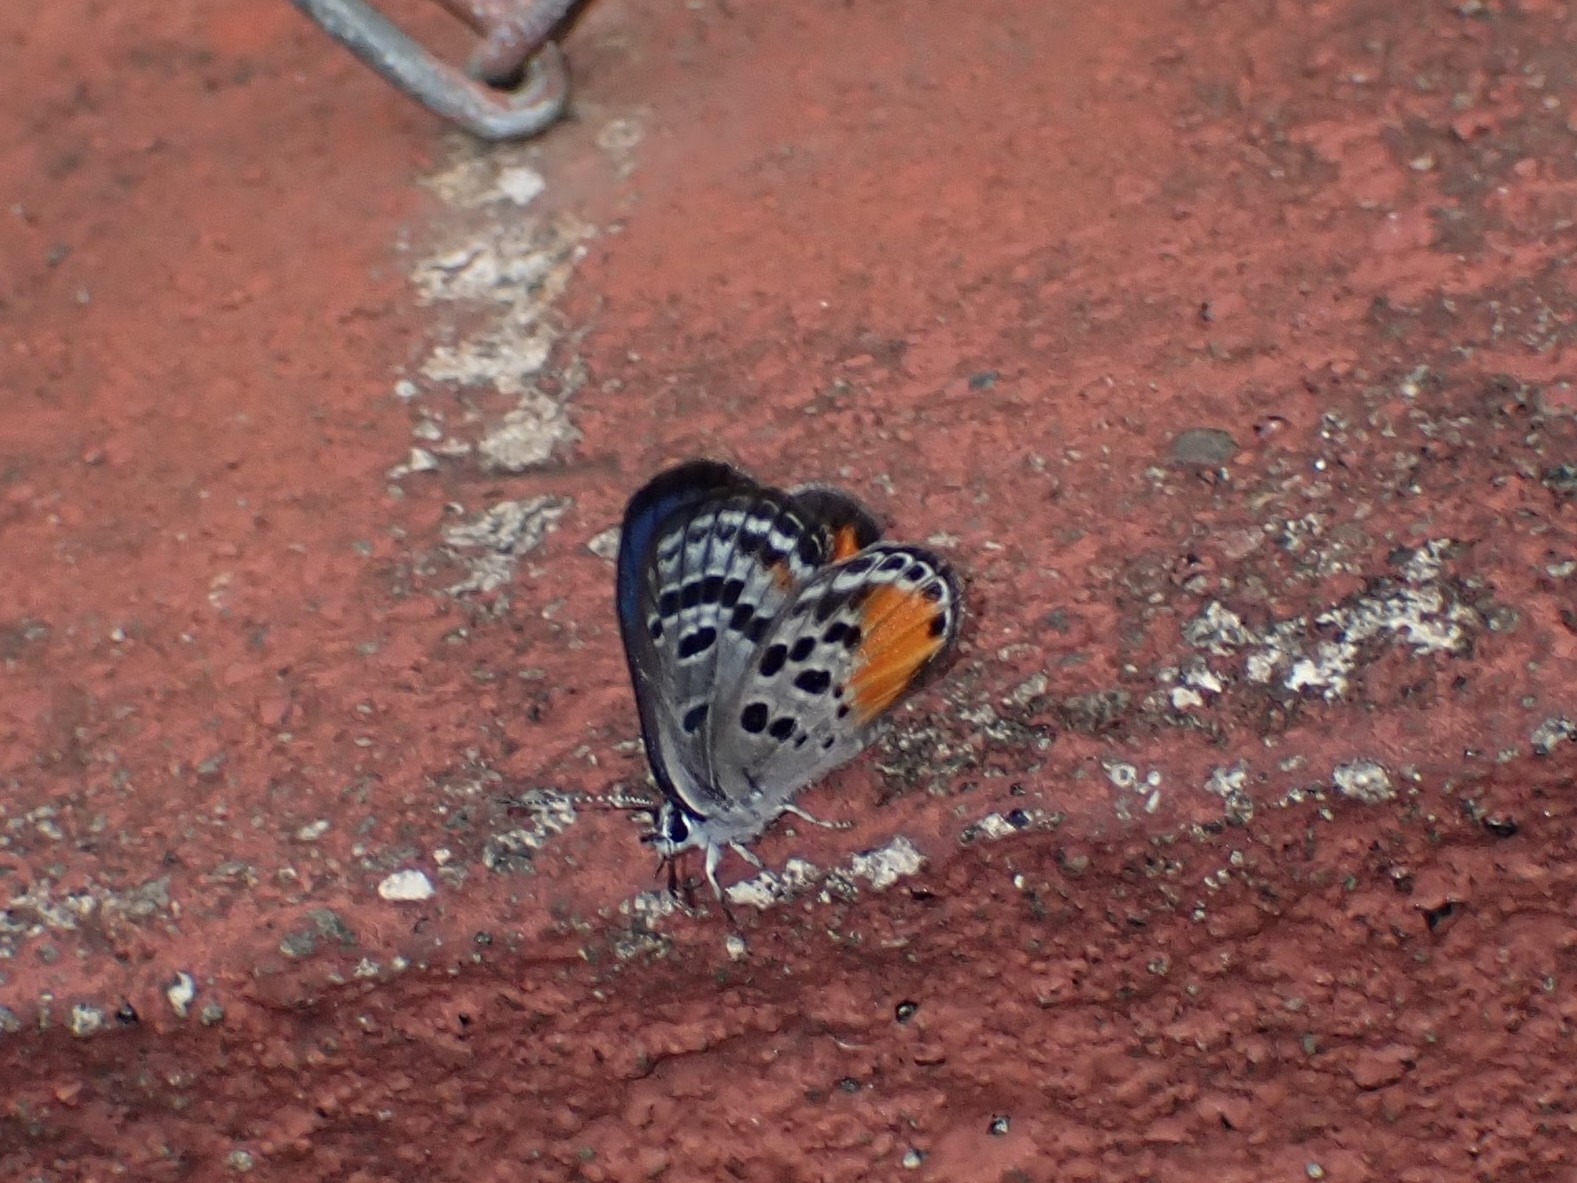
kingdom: Animalia
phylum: Arthropoda
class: Insecta
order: Lepidoptera
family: Lycaenidae
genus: Luthrodes
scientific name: Luthrodes cleotas
